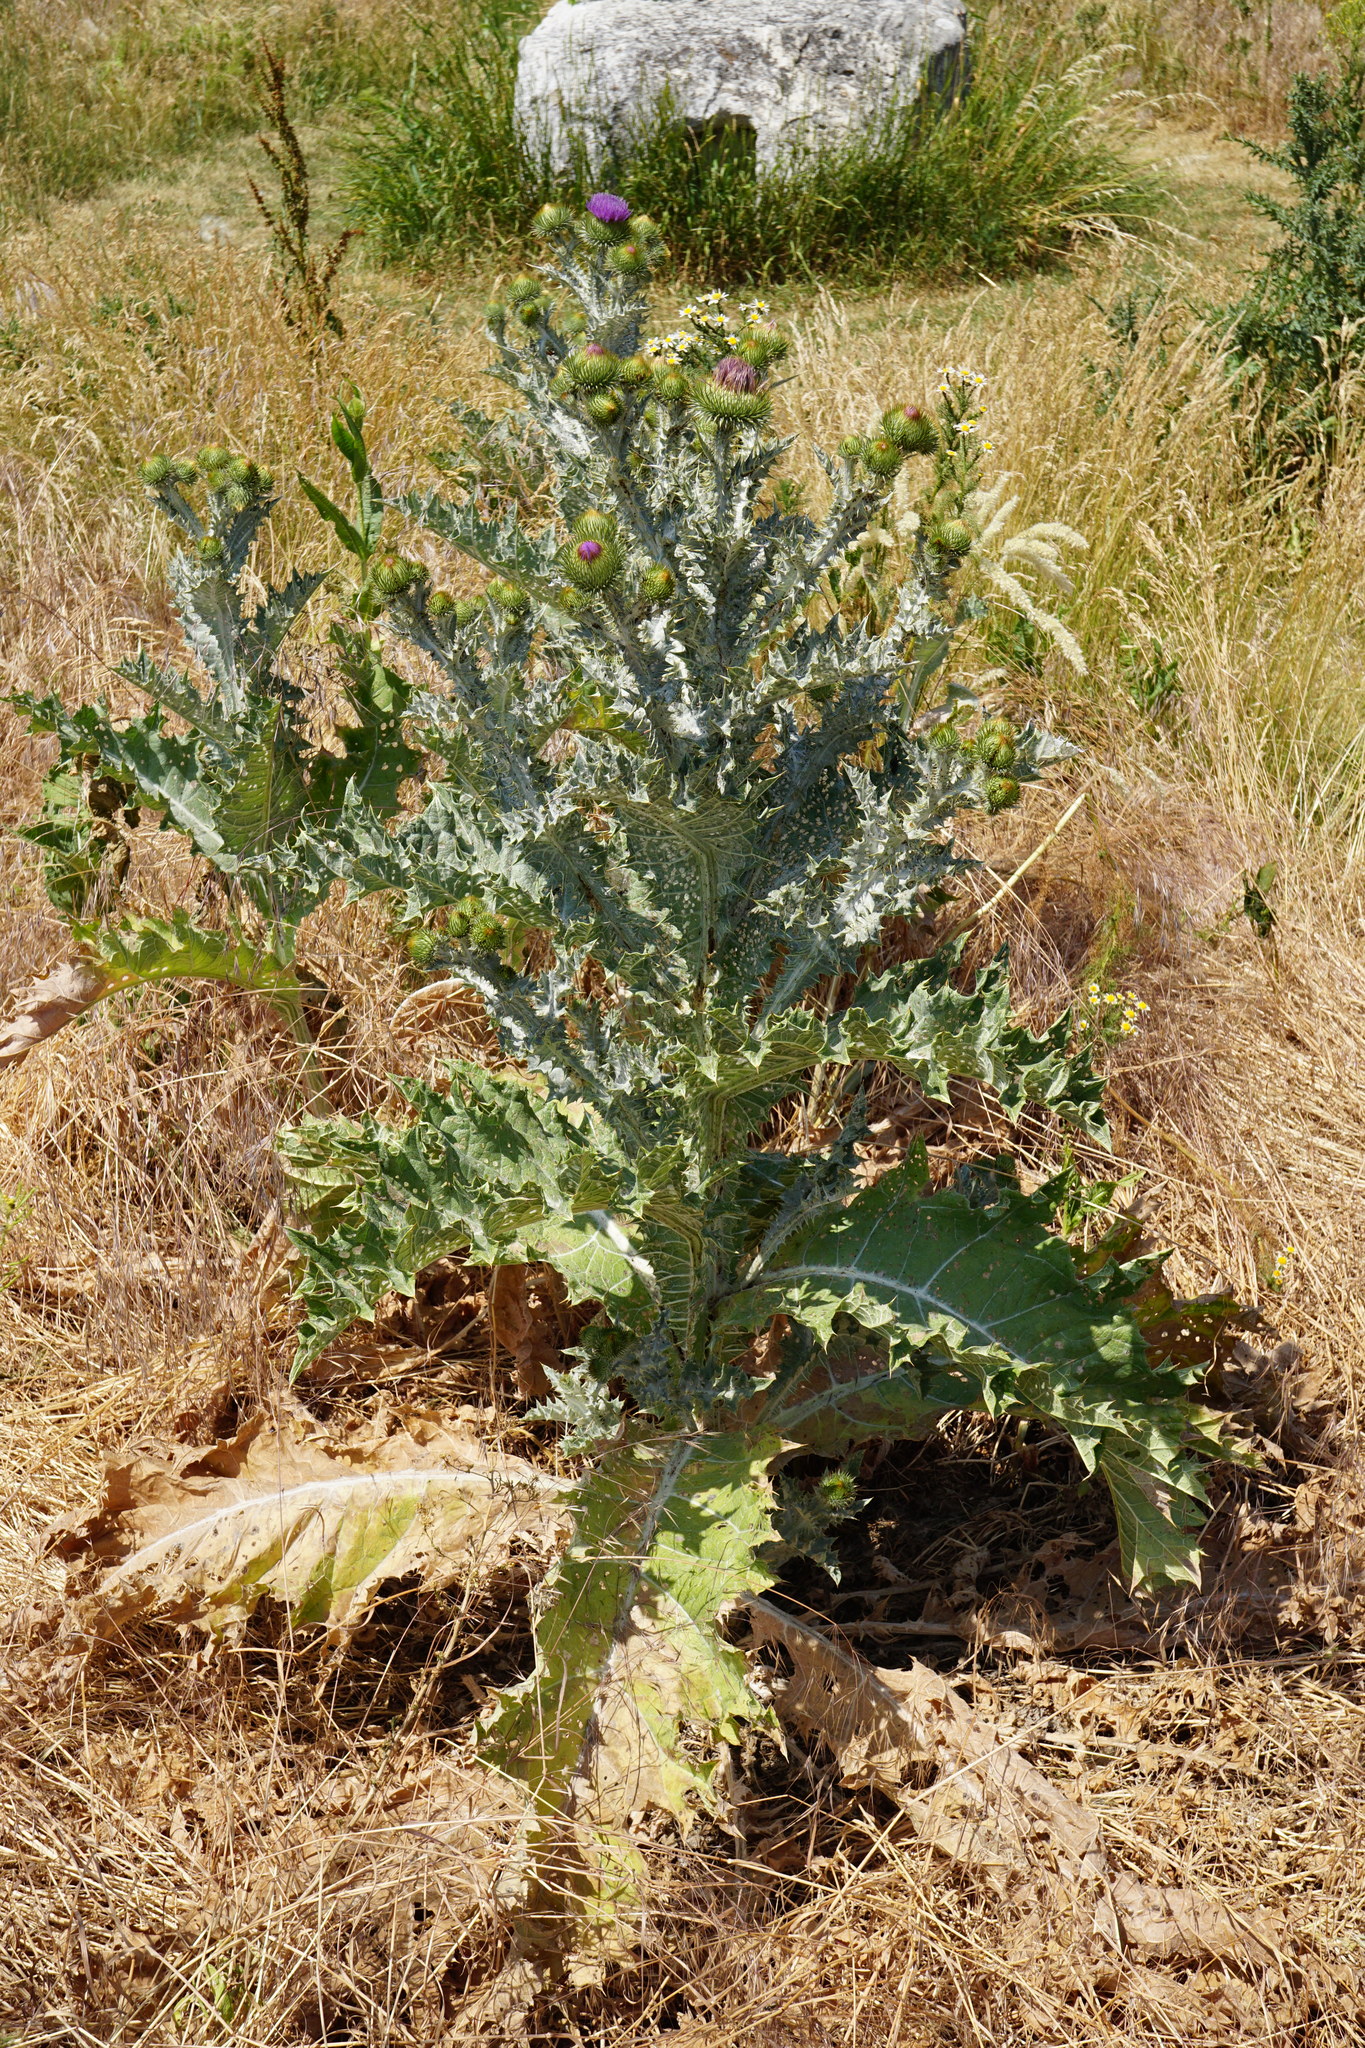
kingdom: Plantae
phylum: Tracheophyta
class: Magnoliopsida
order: Asterales
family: Asteraceae
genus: Onopordum
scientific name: Onopordum acanthium
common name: Scotch thistle
